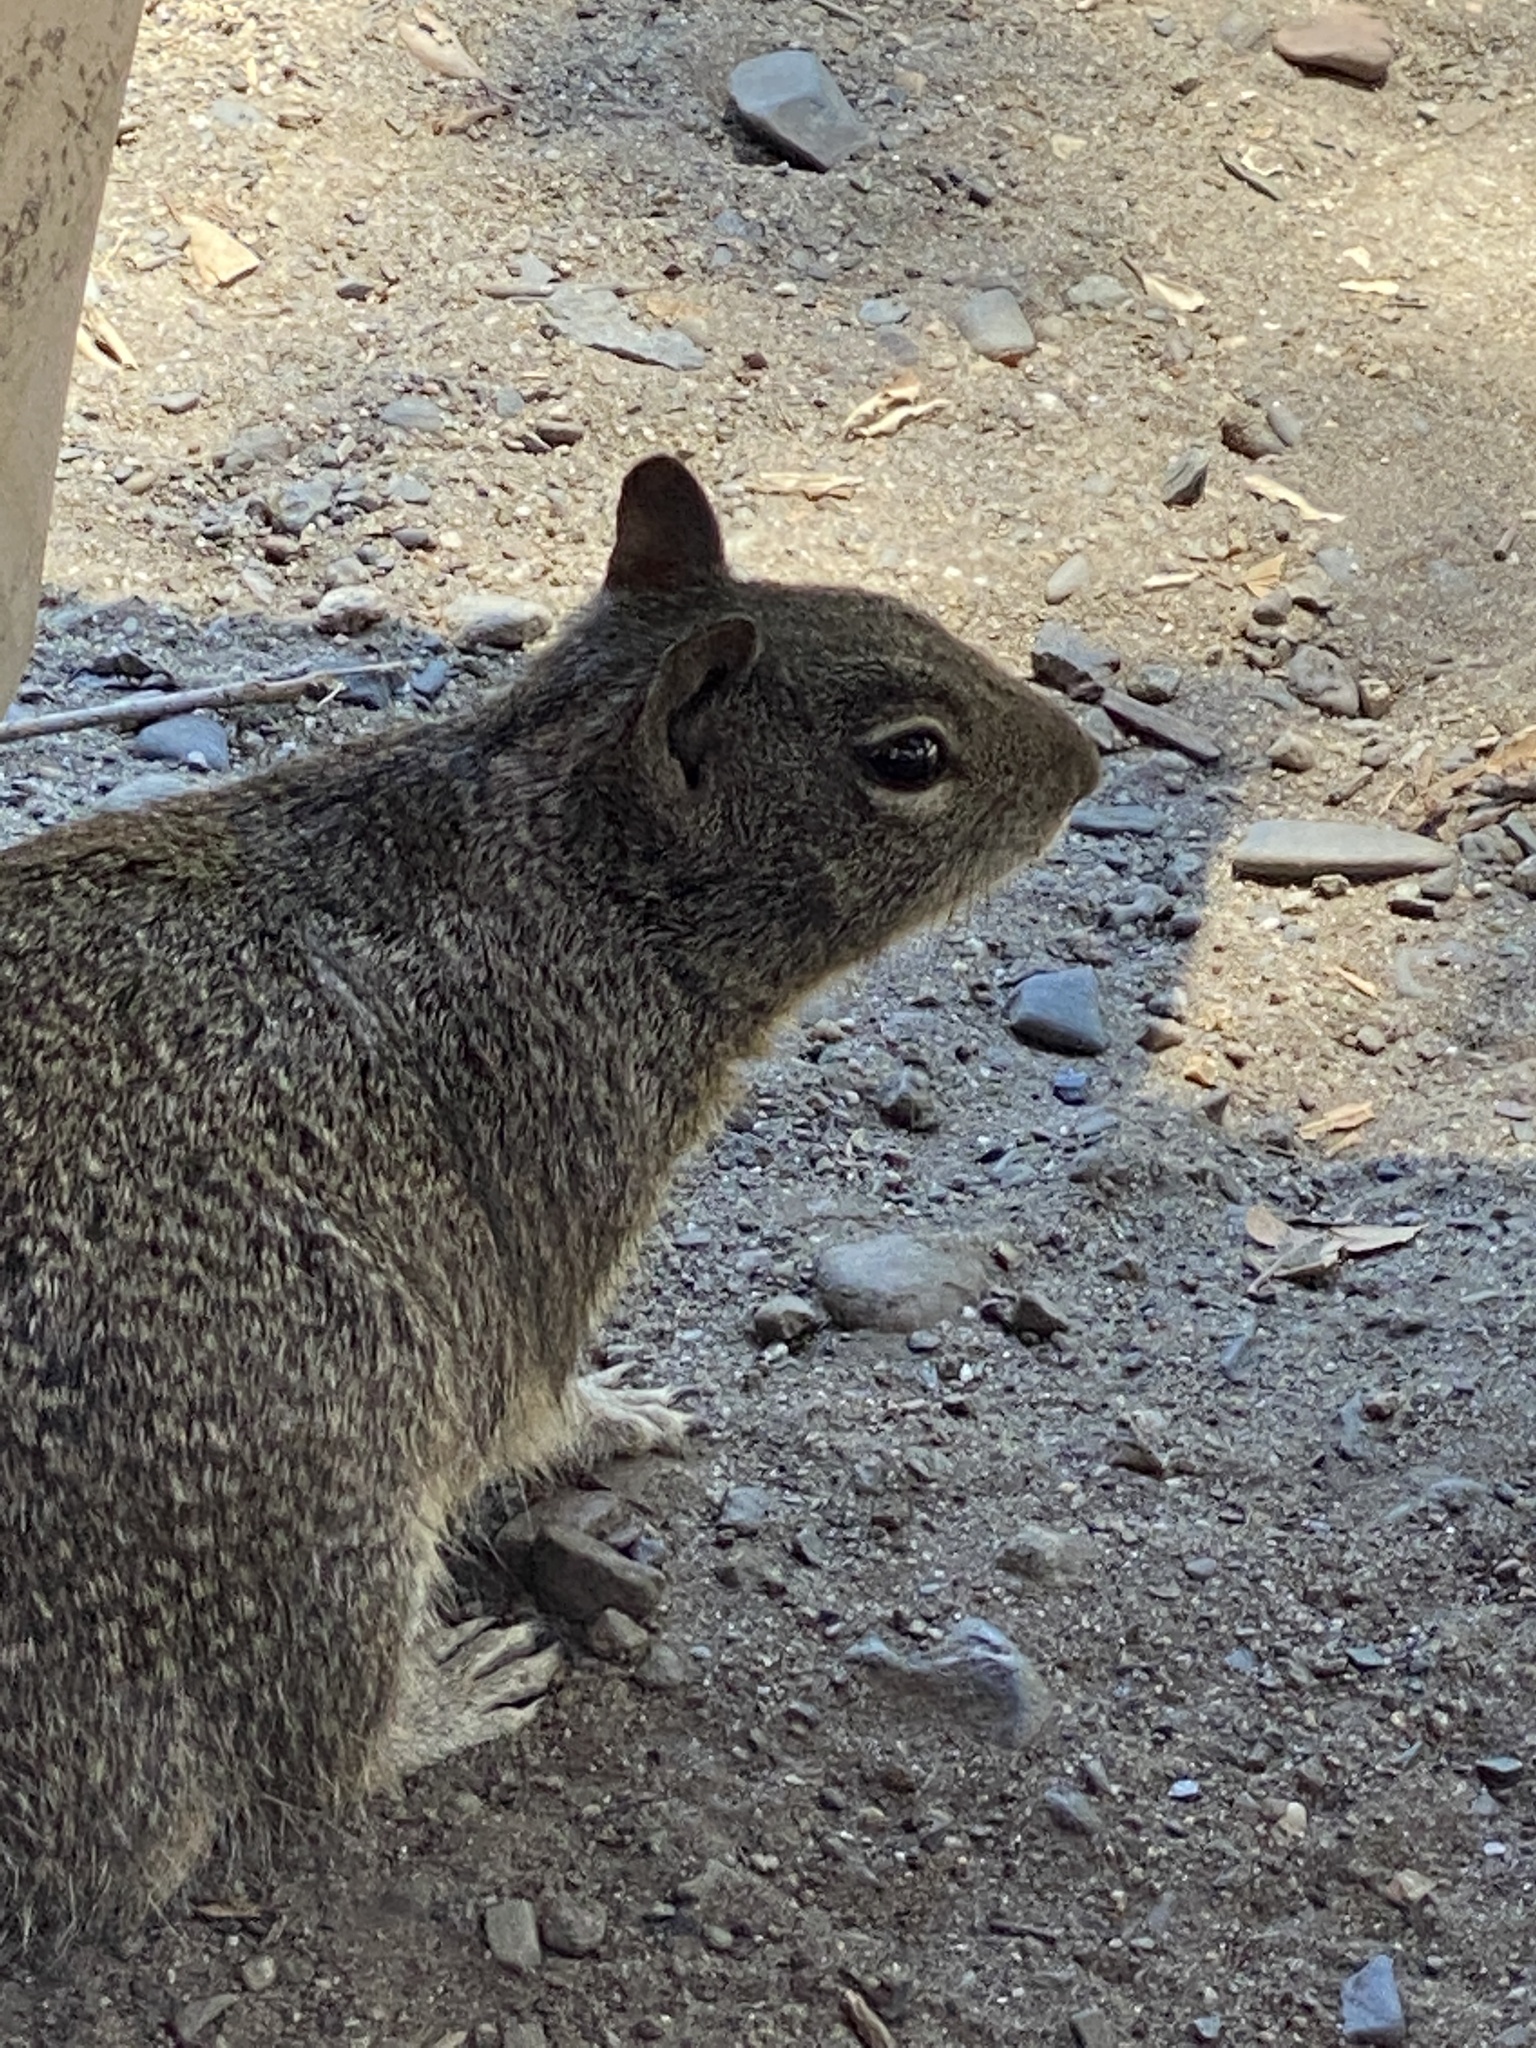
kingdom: Animalia
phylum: Chordata
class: Mammalia
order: Rodentia
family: Sciuridae
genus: Otospermophilus
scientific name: Otospermophilus beecheyi
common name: California ground squirrel
